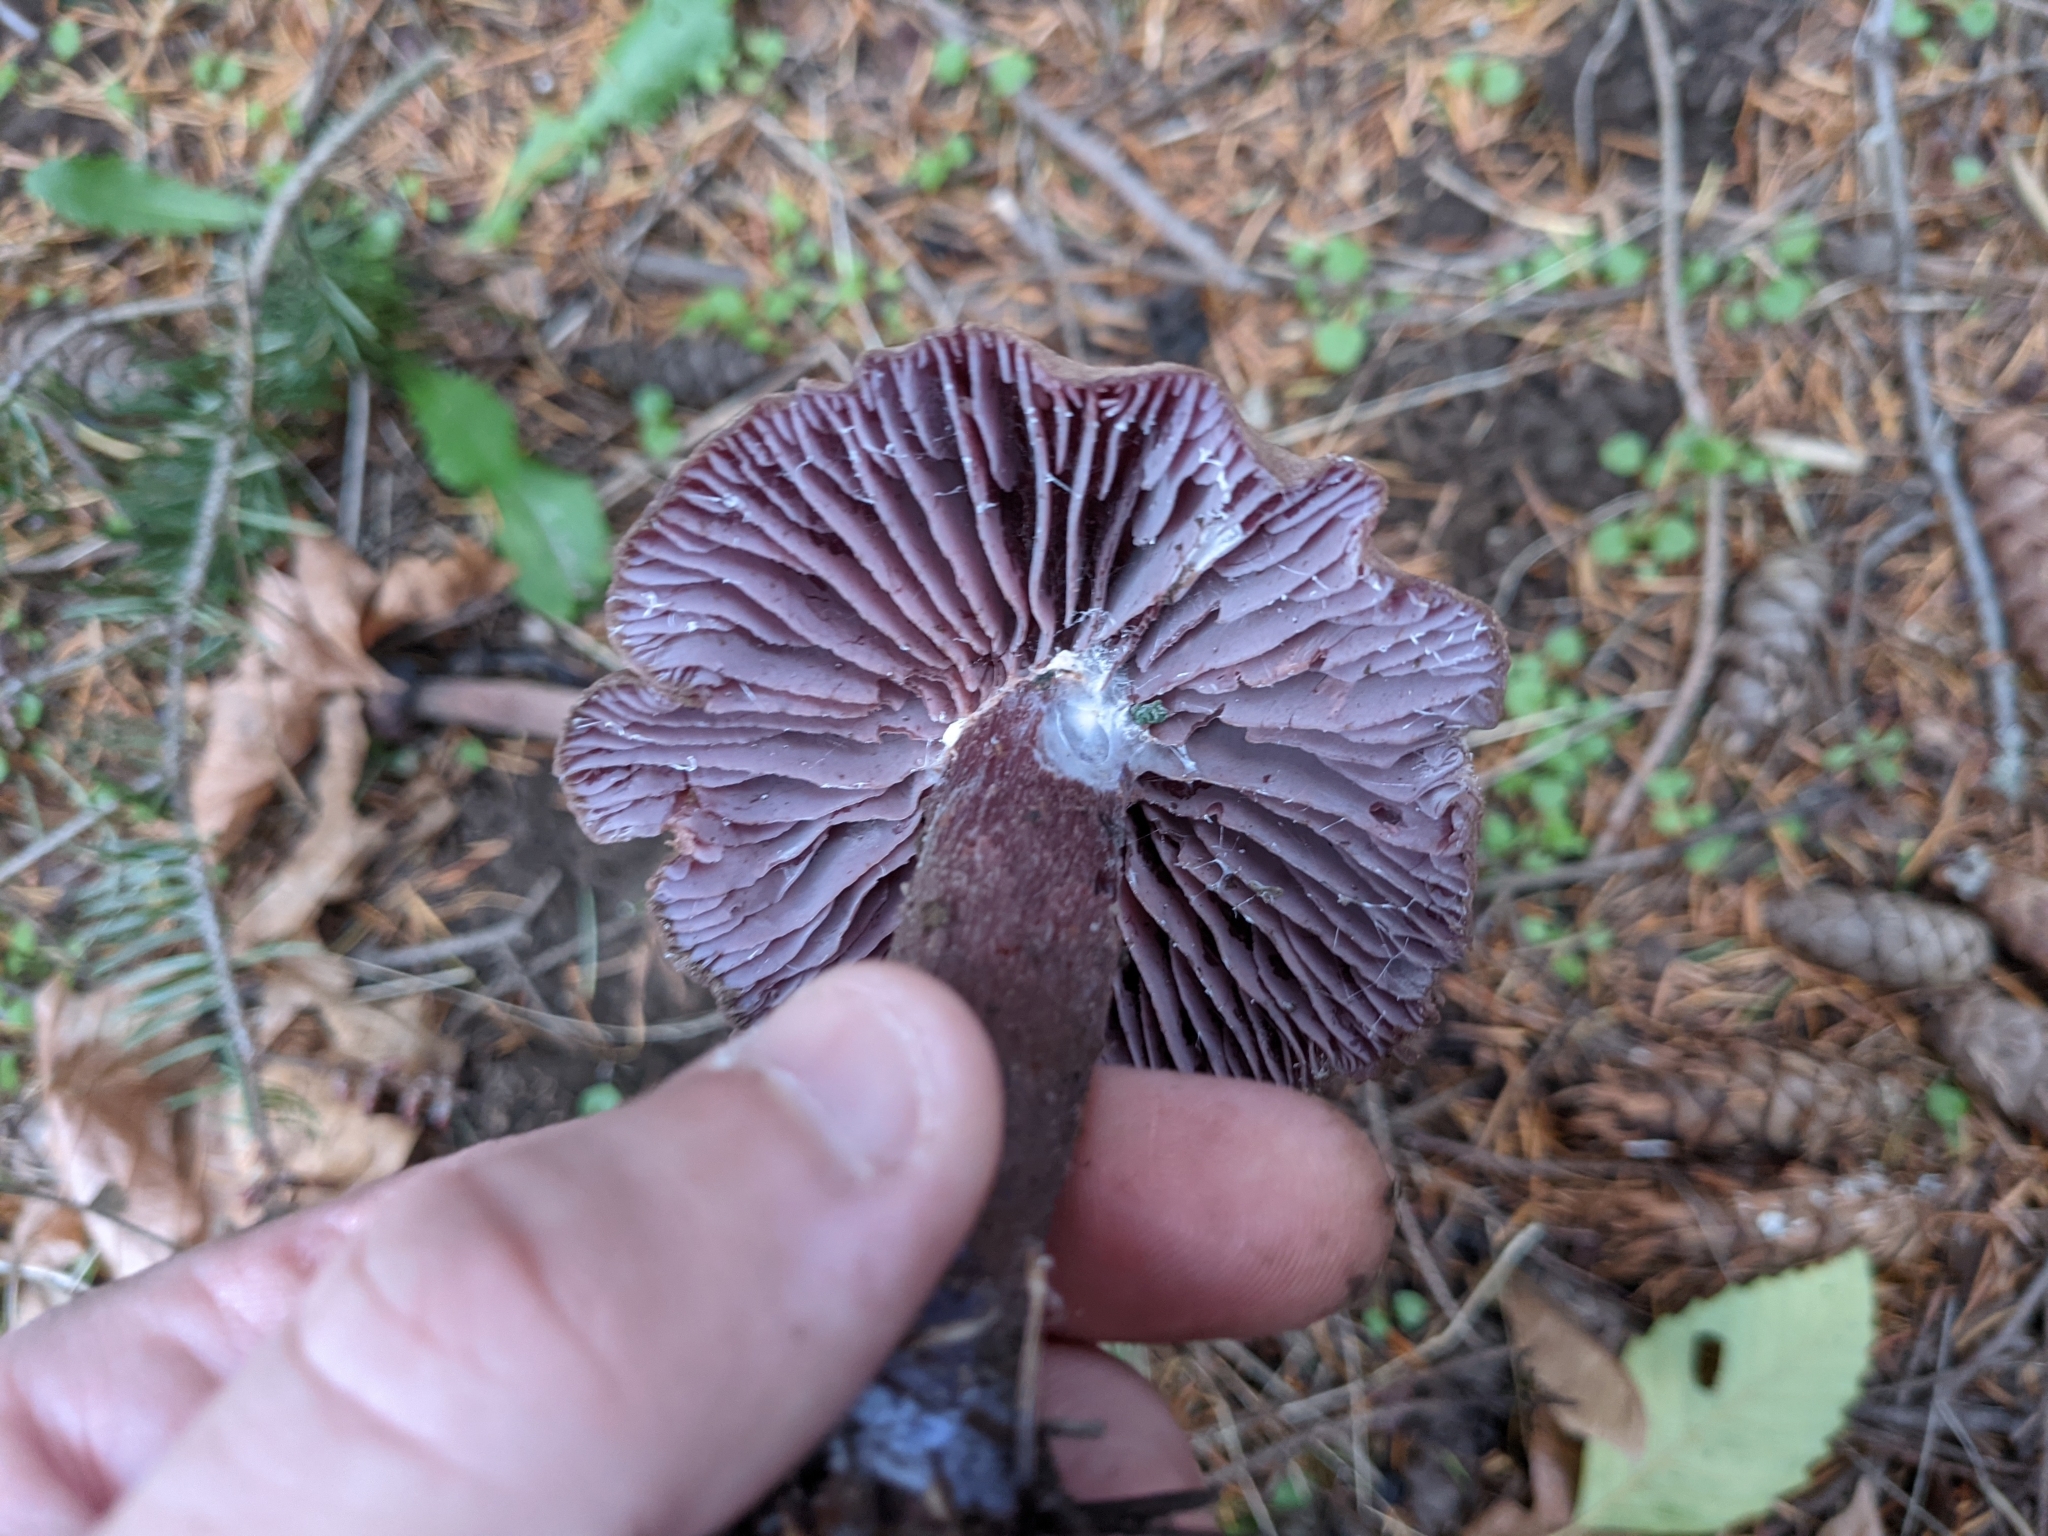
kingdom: Fungi
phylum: Basidiomycota
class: Agaricomycetes
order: Agaricales
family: Hydnangiaceae
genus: Laccaria
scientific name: Laccaria amethysteo-occidentalis
